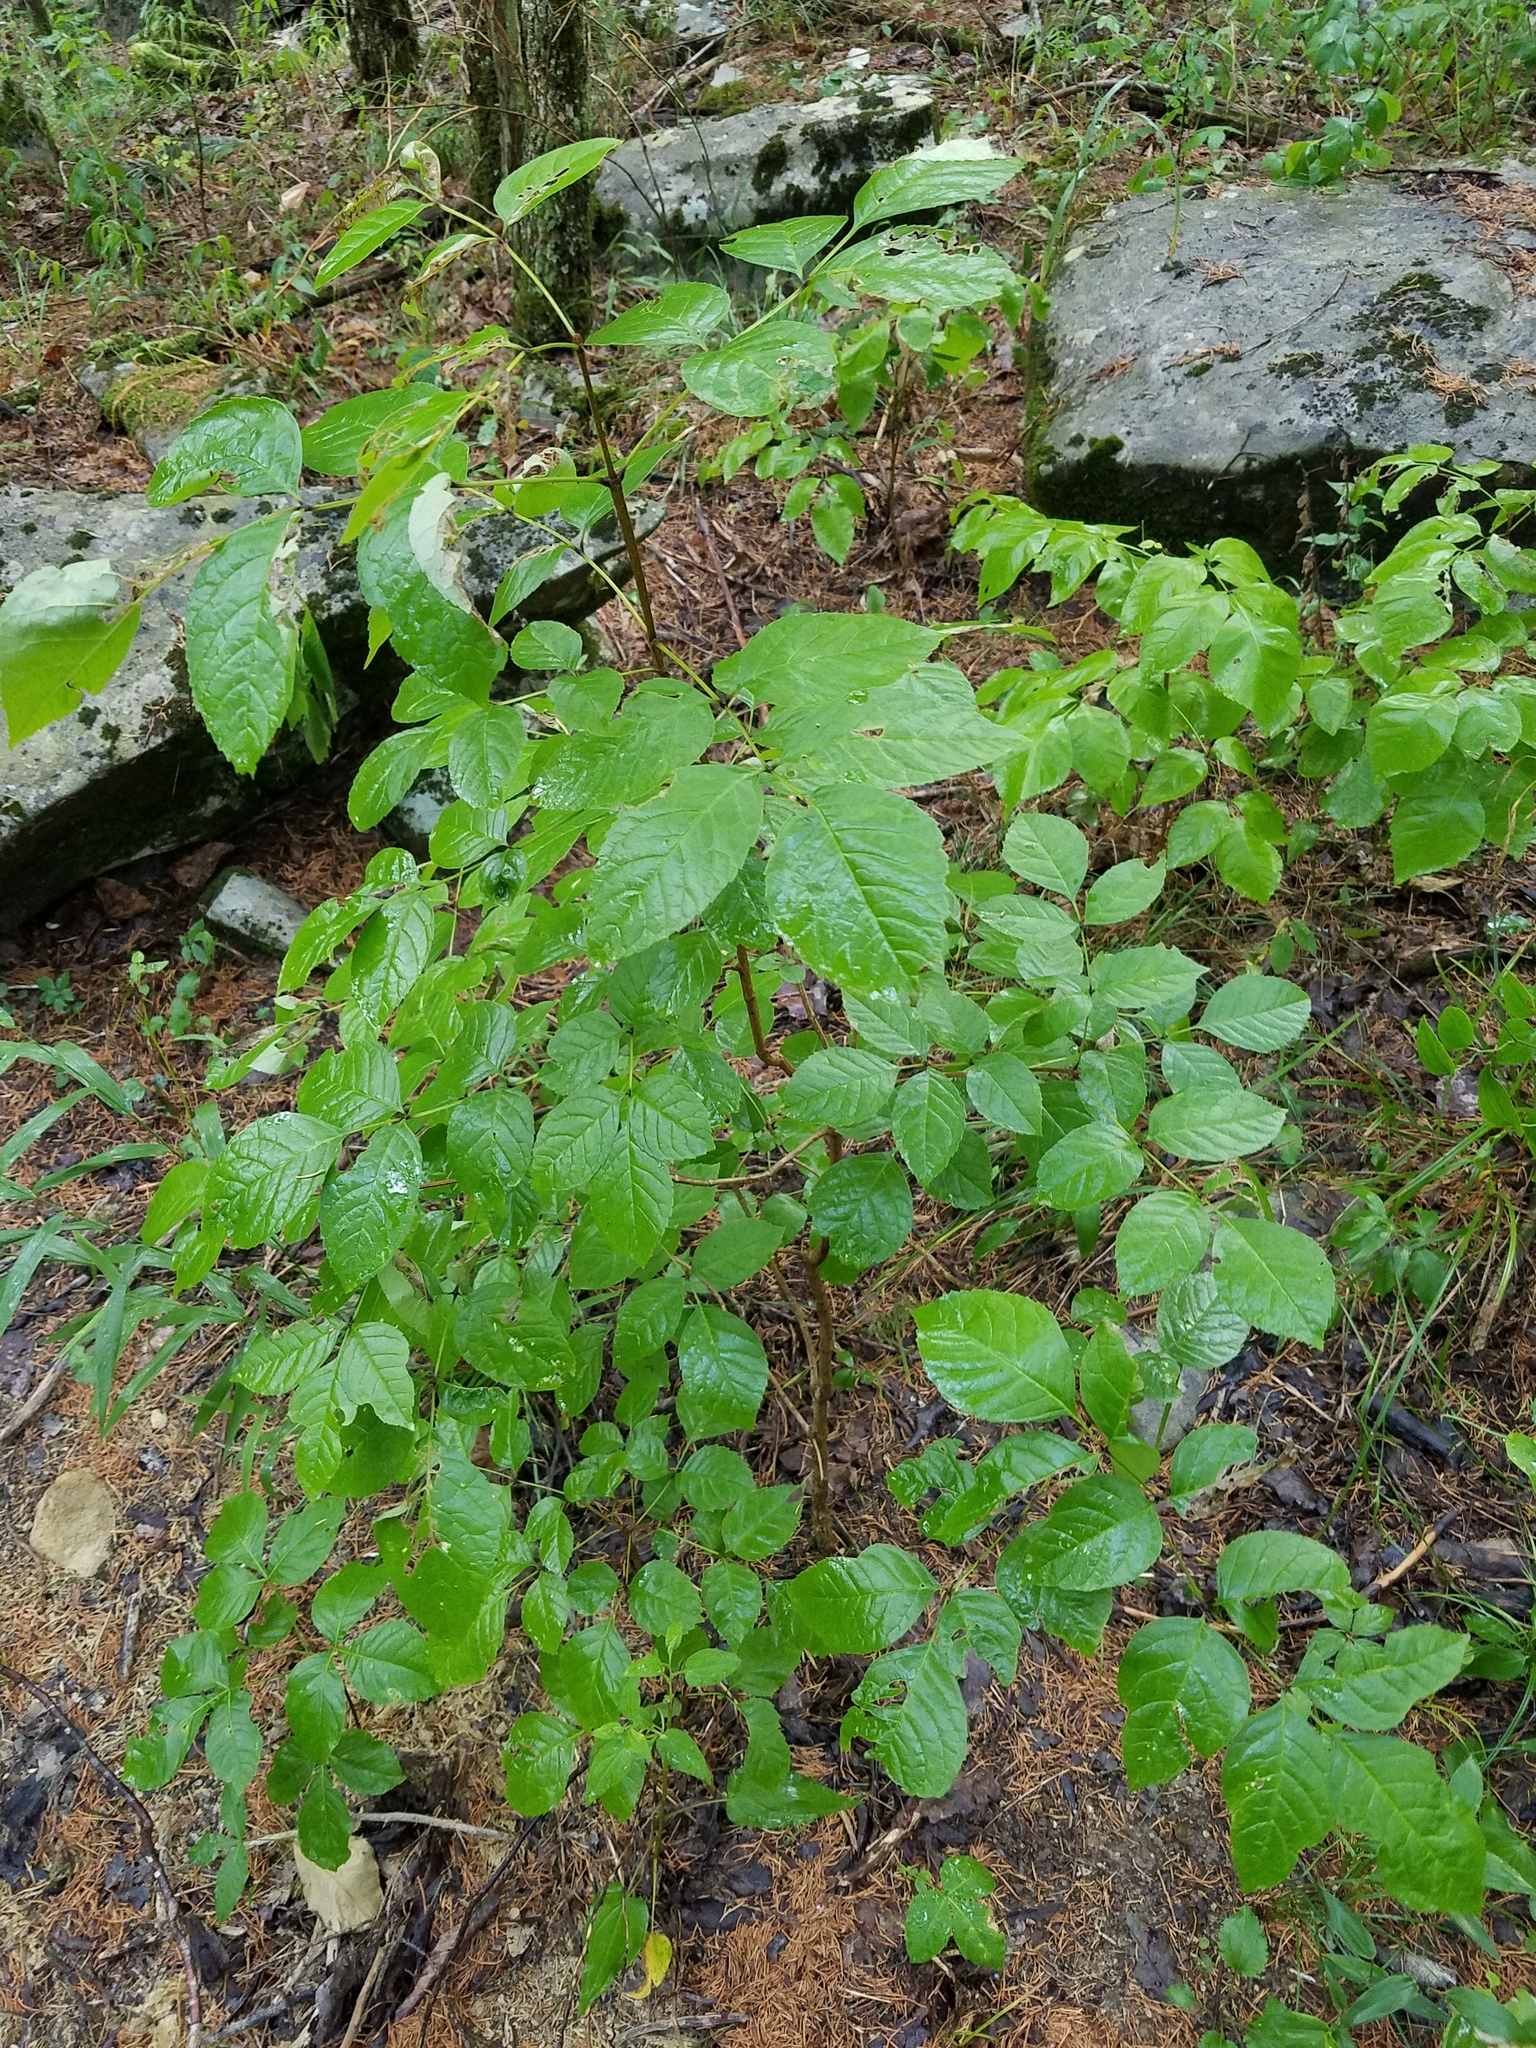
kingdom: Plantae
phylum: Tracheophyta
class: Magnoliopsida
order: Lamiales
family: Oleaceae
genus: Fraxinus
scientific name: Fraxinus quadrangulata
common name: Blue ash
